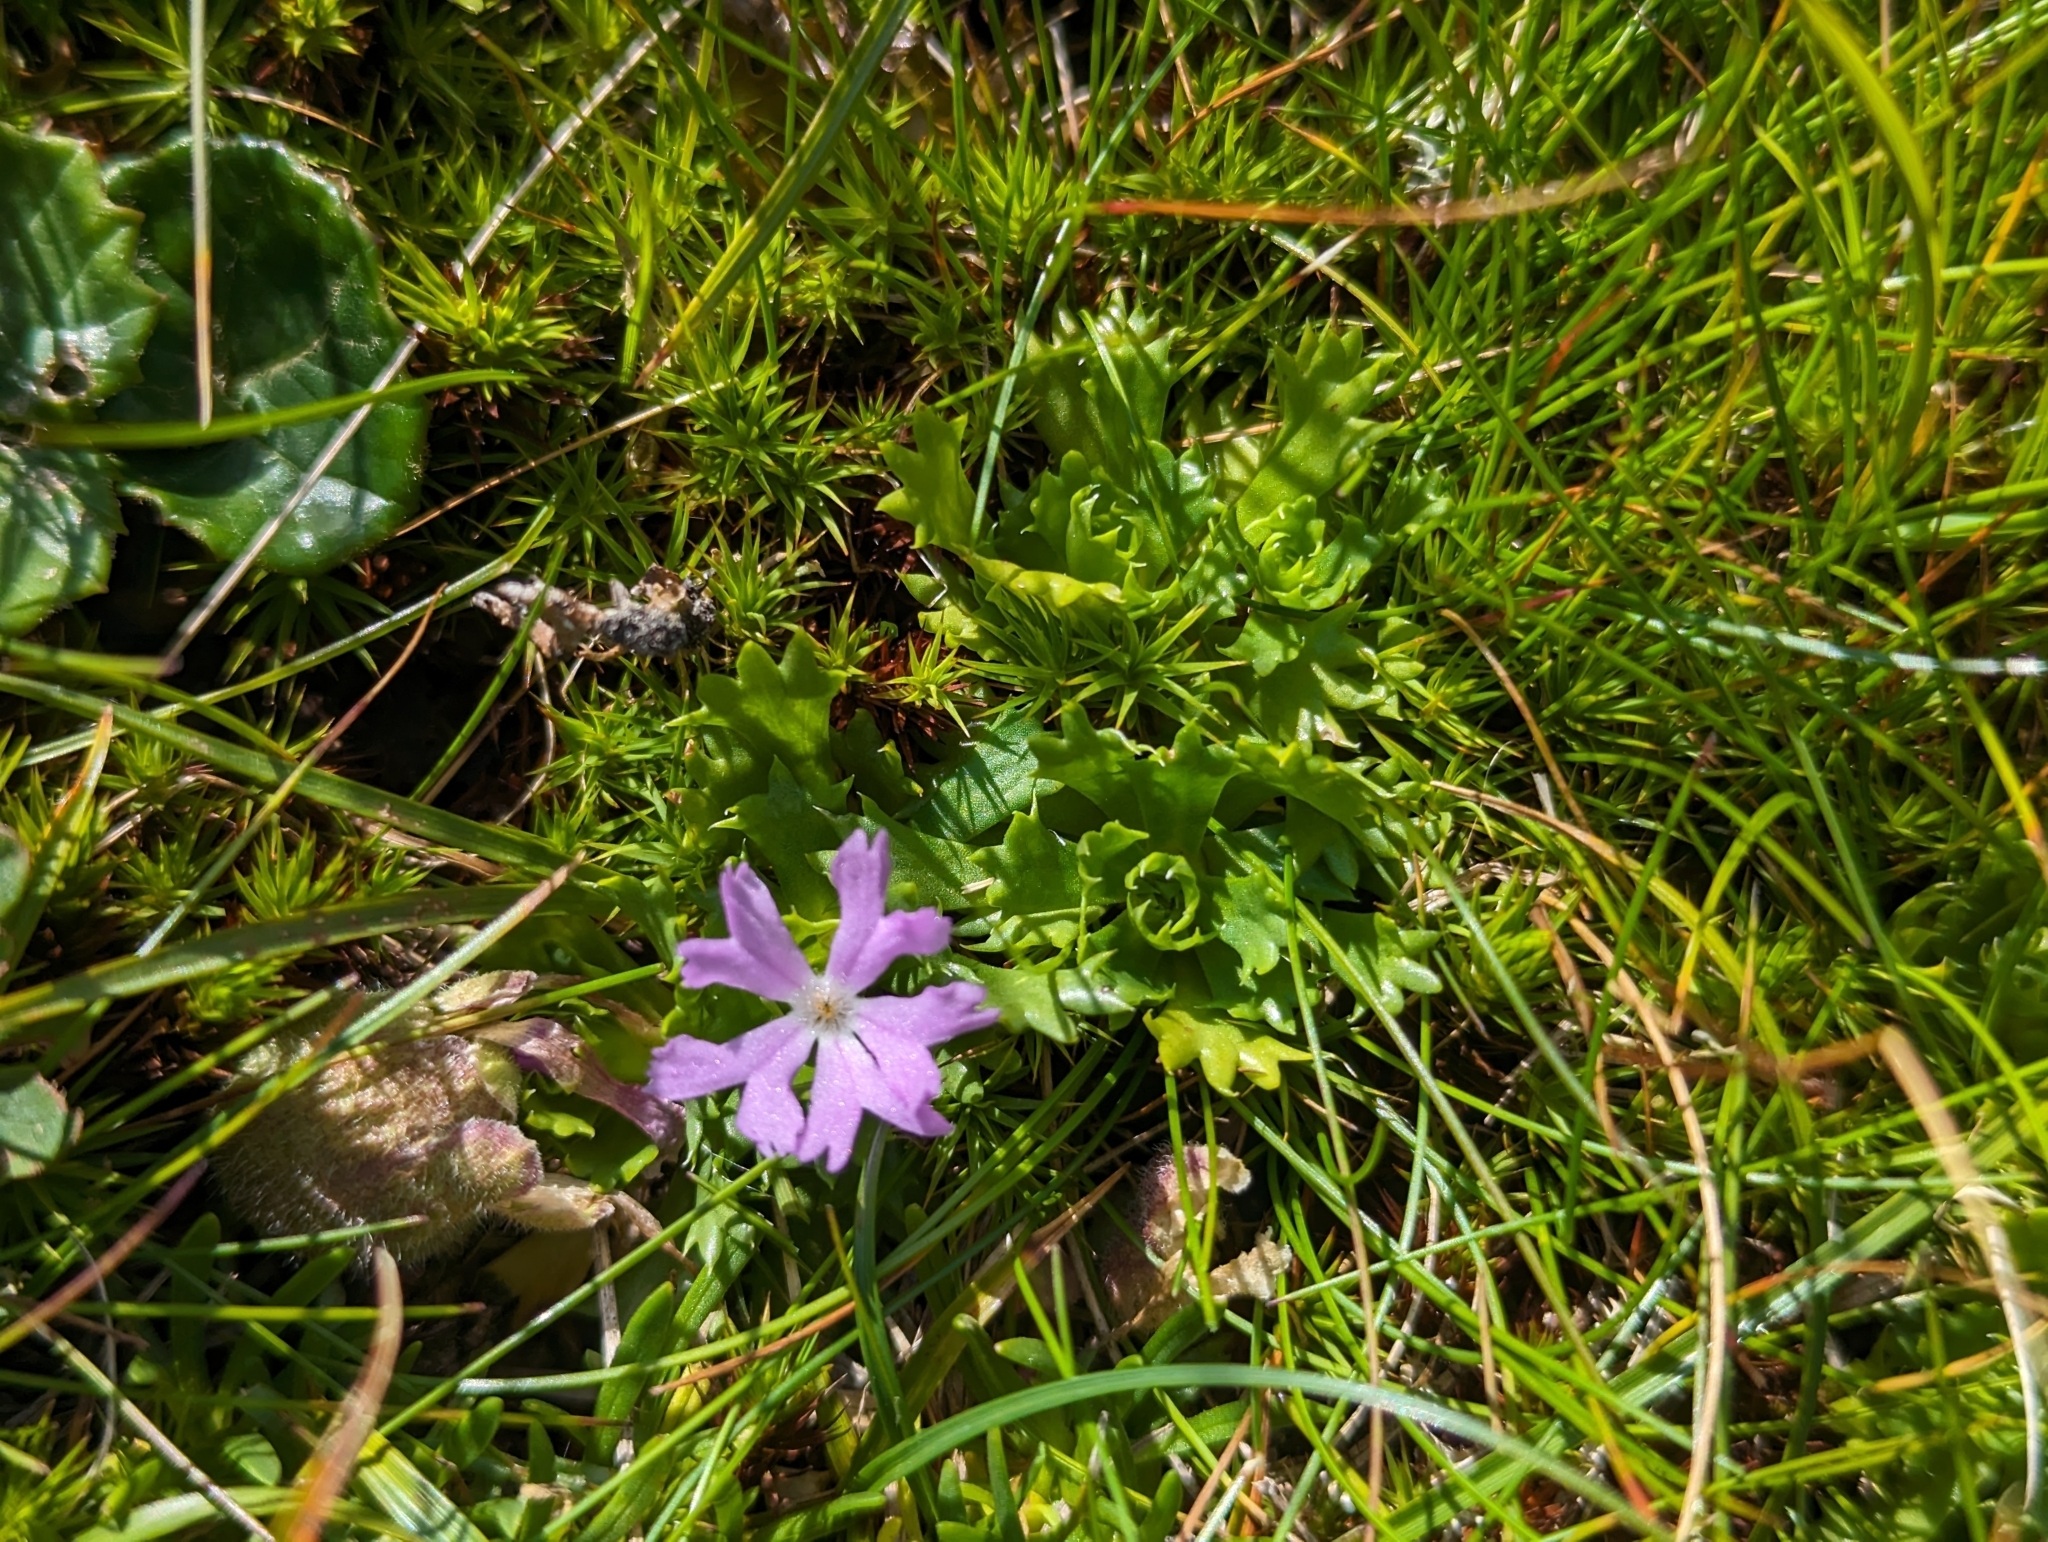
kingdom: Plantae
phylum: Tracheophyta
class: Magnoliopsida
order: Ericales
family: Primulaceae
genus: Primula
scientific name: Primula minima
